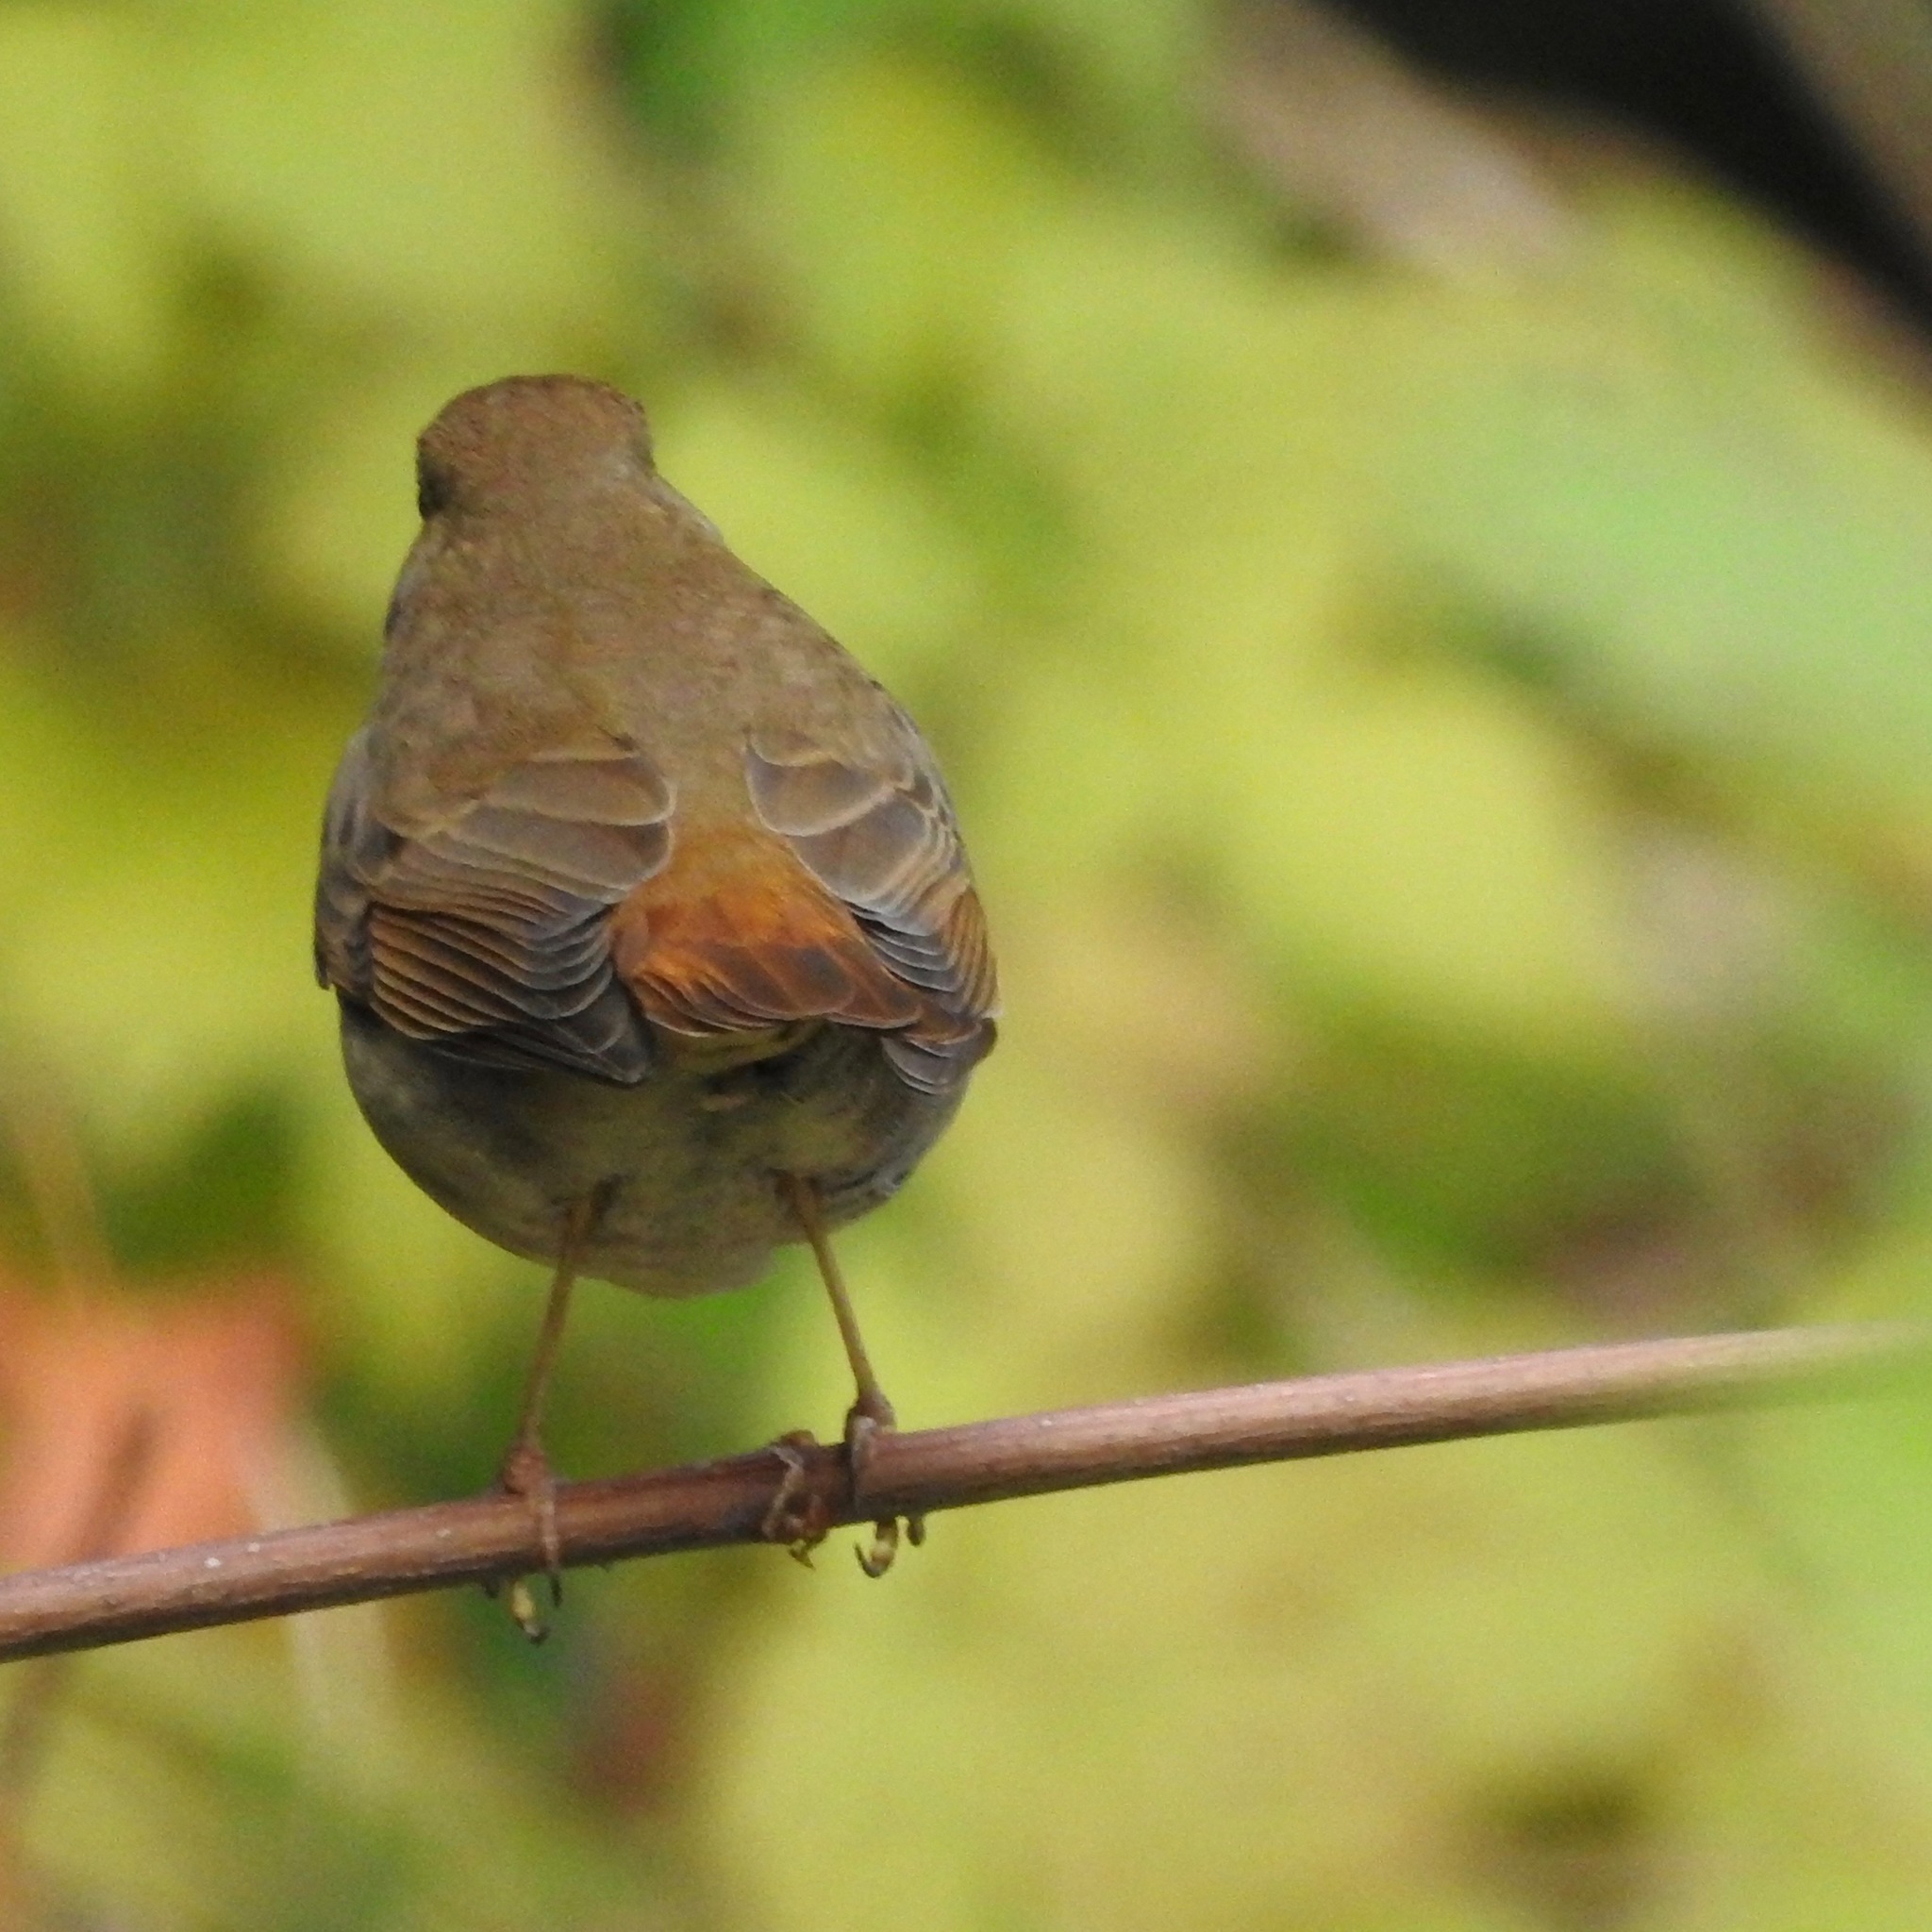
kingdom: Animalia
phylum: Chordata
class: Aves
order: Passeriformes
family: Turdidae
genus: Catharus
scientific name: Catharus guttatus
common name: Hermit thrush
